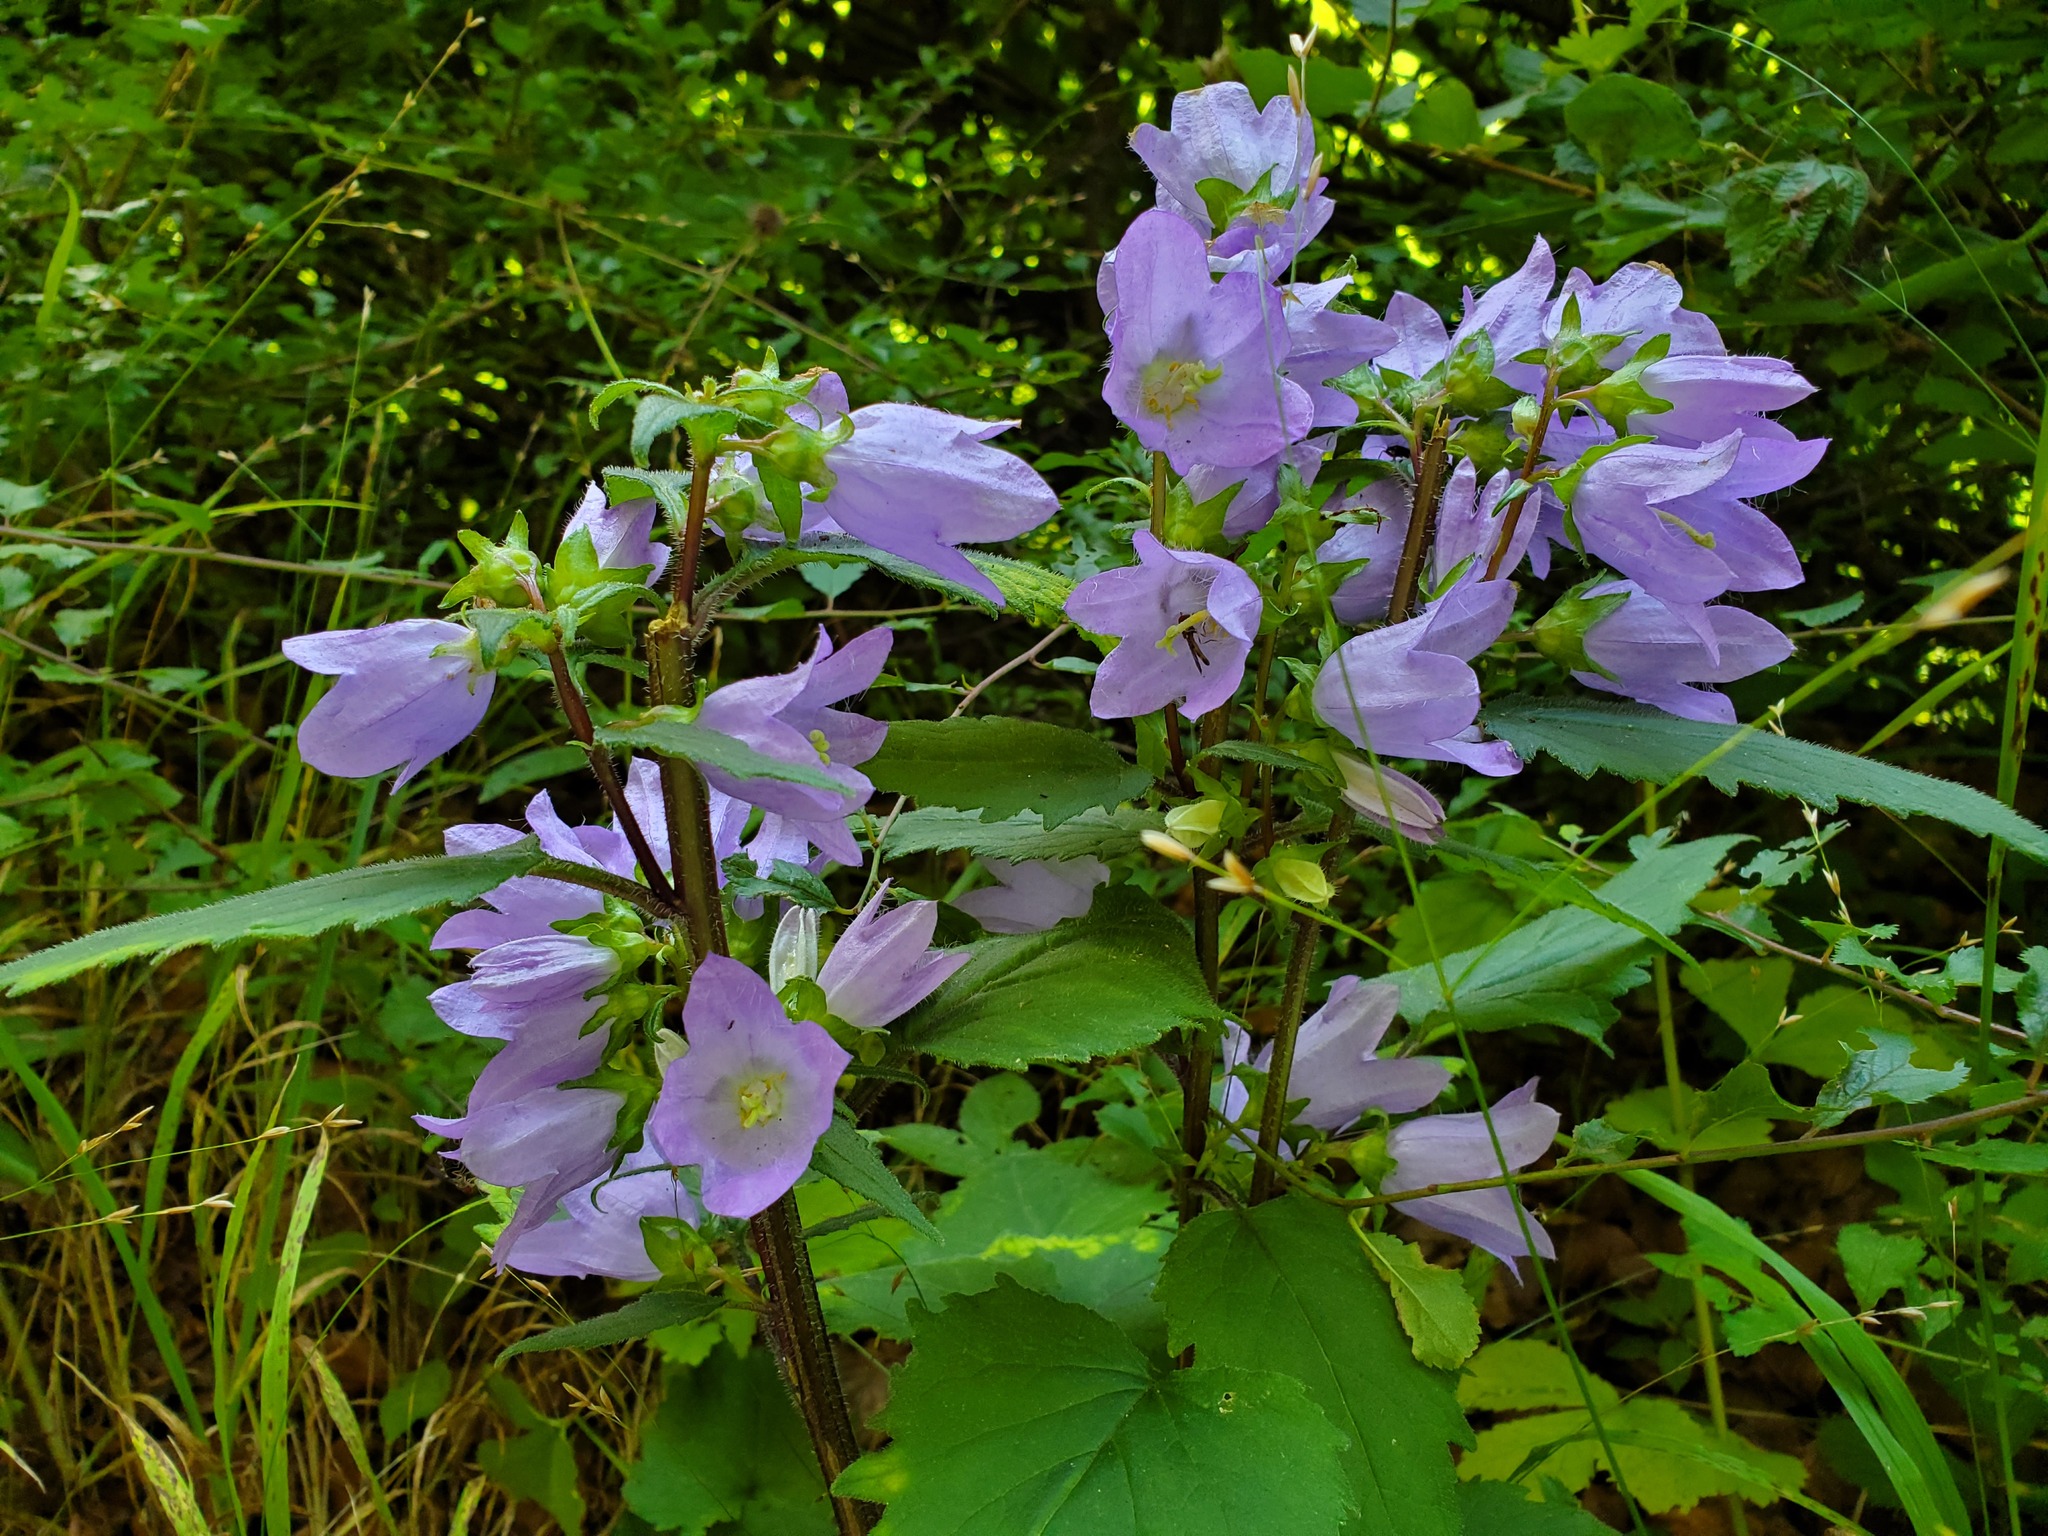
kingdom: Plantae
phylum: Tracheophyta
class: Magnoliopsida
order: Asterales
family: Campanulaceae
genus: Campanula
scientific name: Campanula trachelium
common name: Nettle-leaved bellflower
